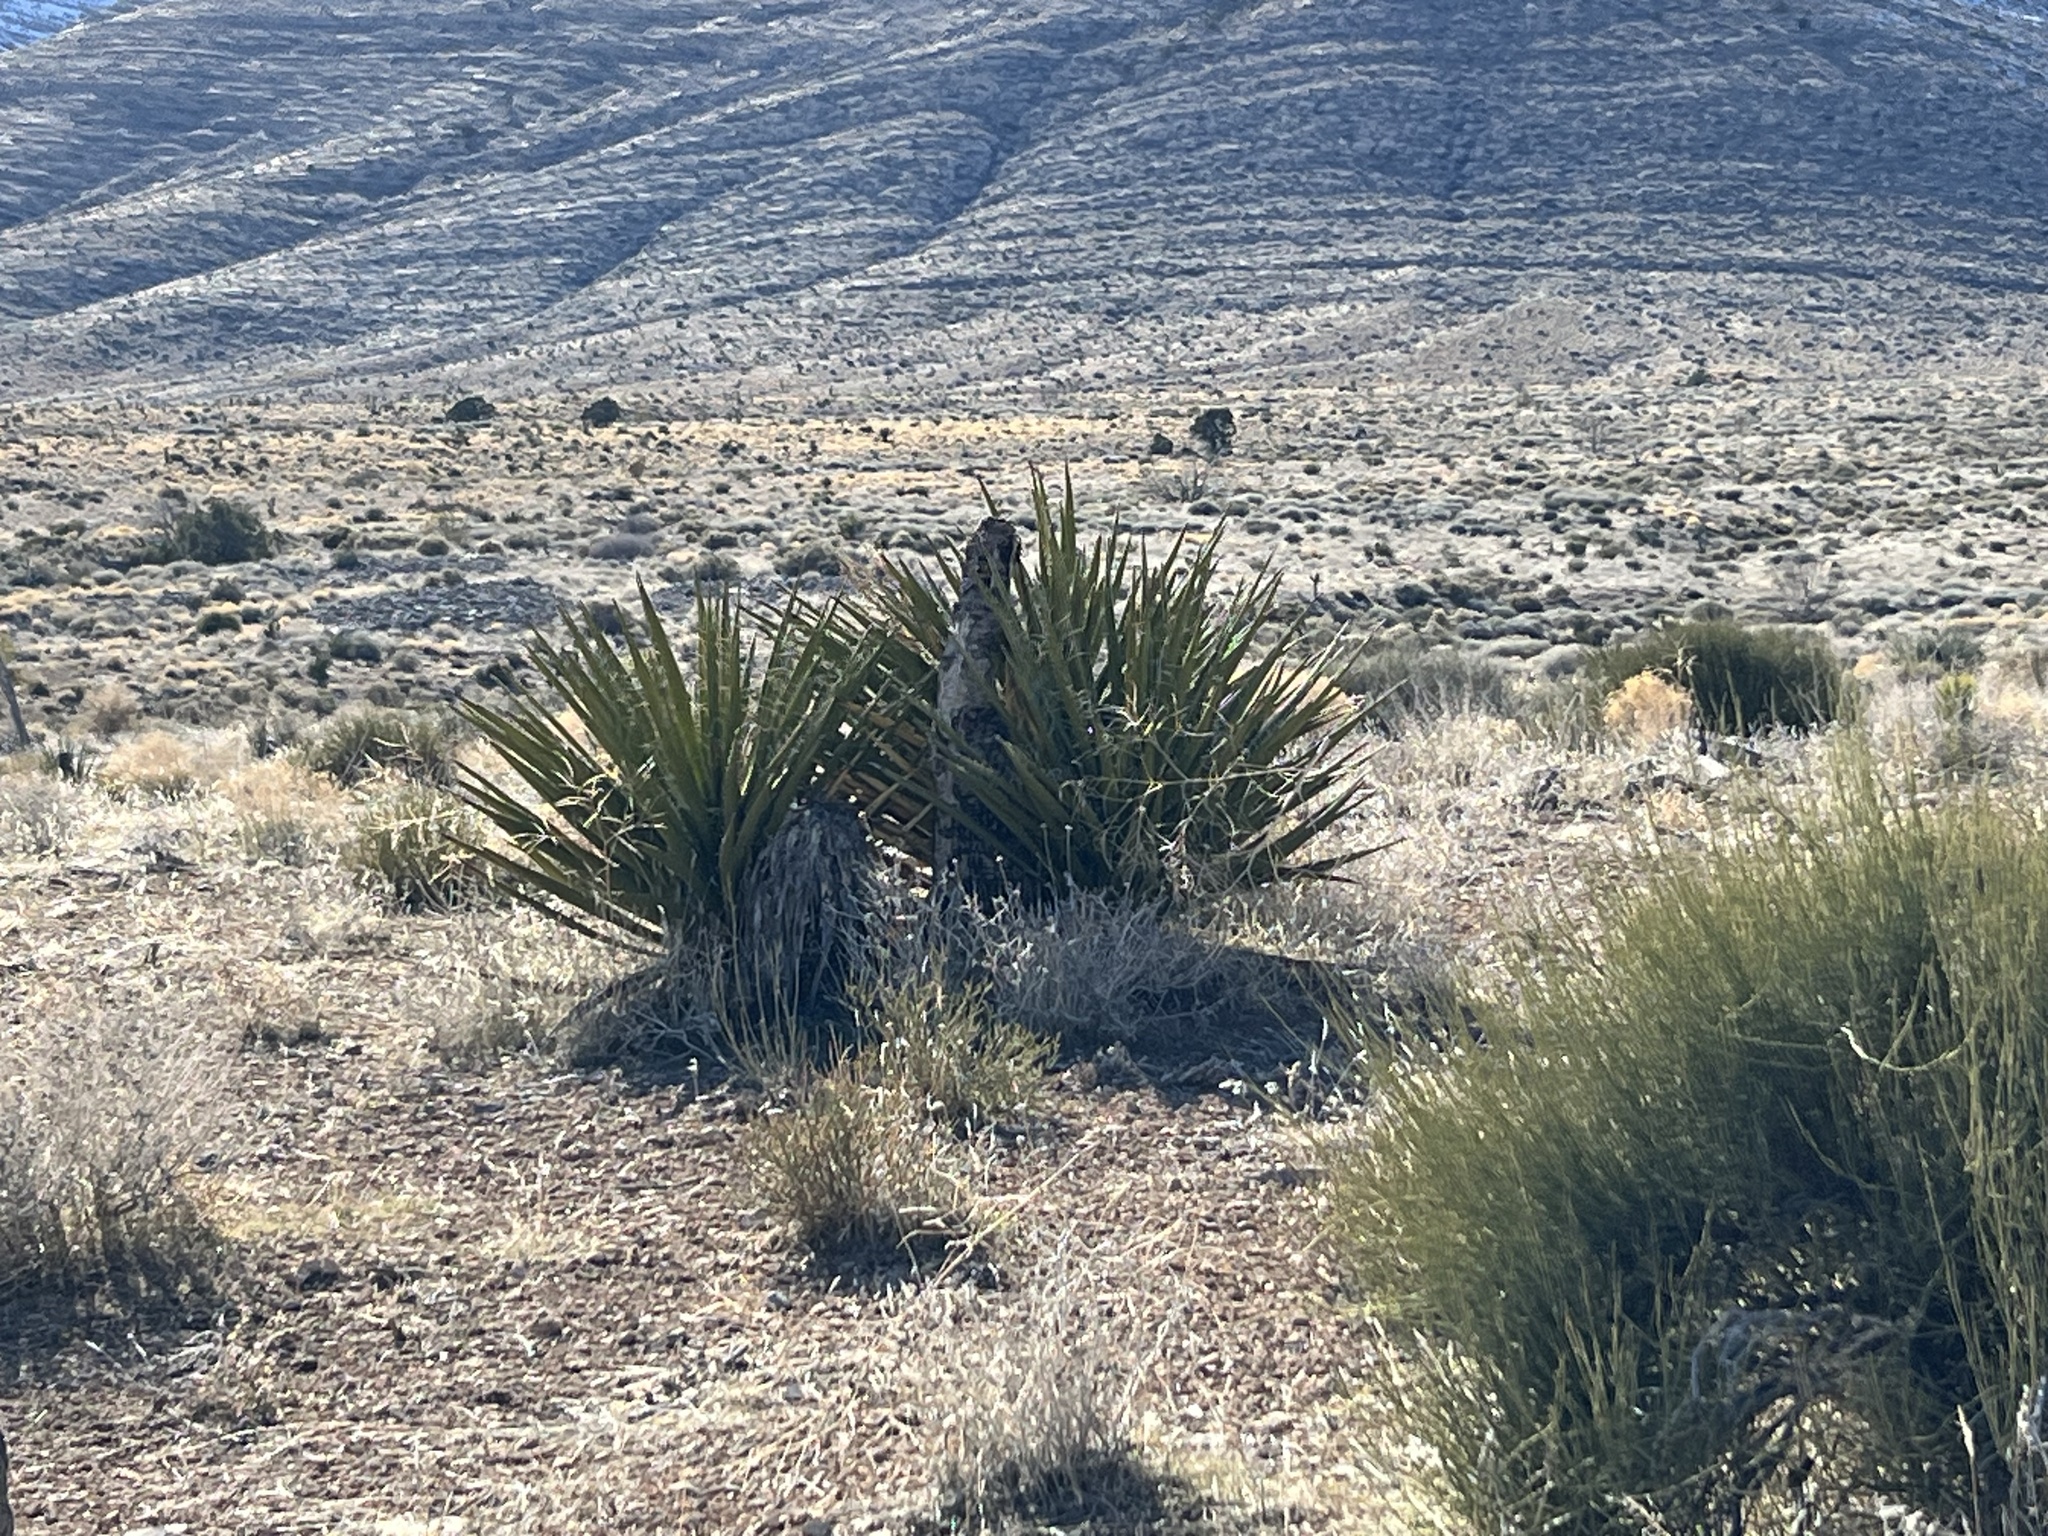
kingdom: Plantae
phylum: Tracheophyta
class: Liliopsida
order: Asparagales
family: Asparagaceae
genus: Yucca
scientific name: Yucca schidigera
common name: Mojave yucca
